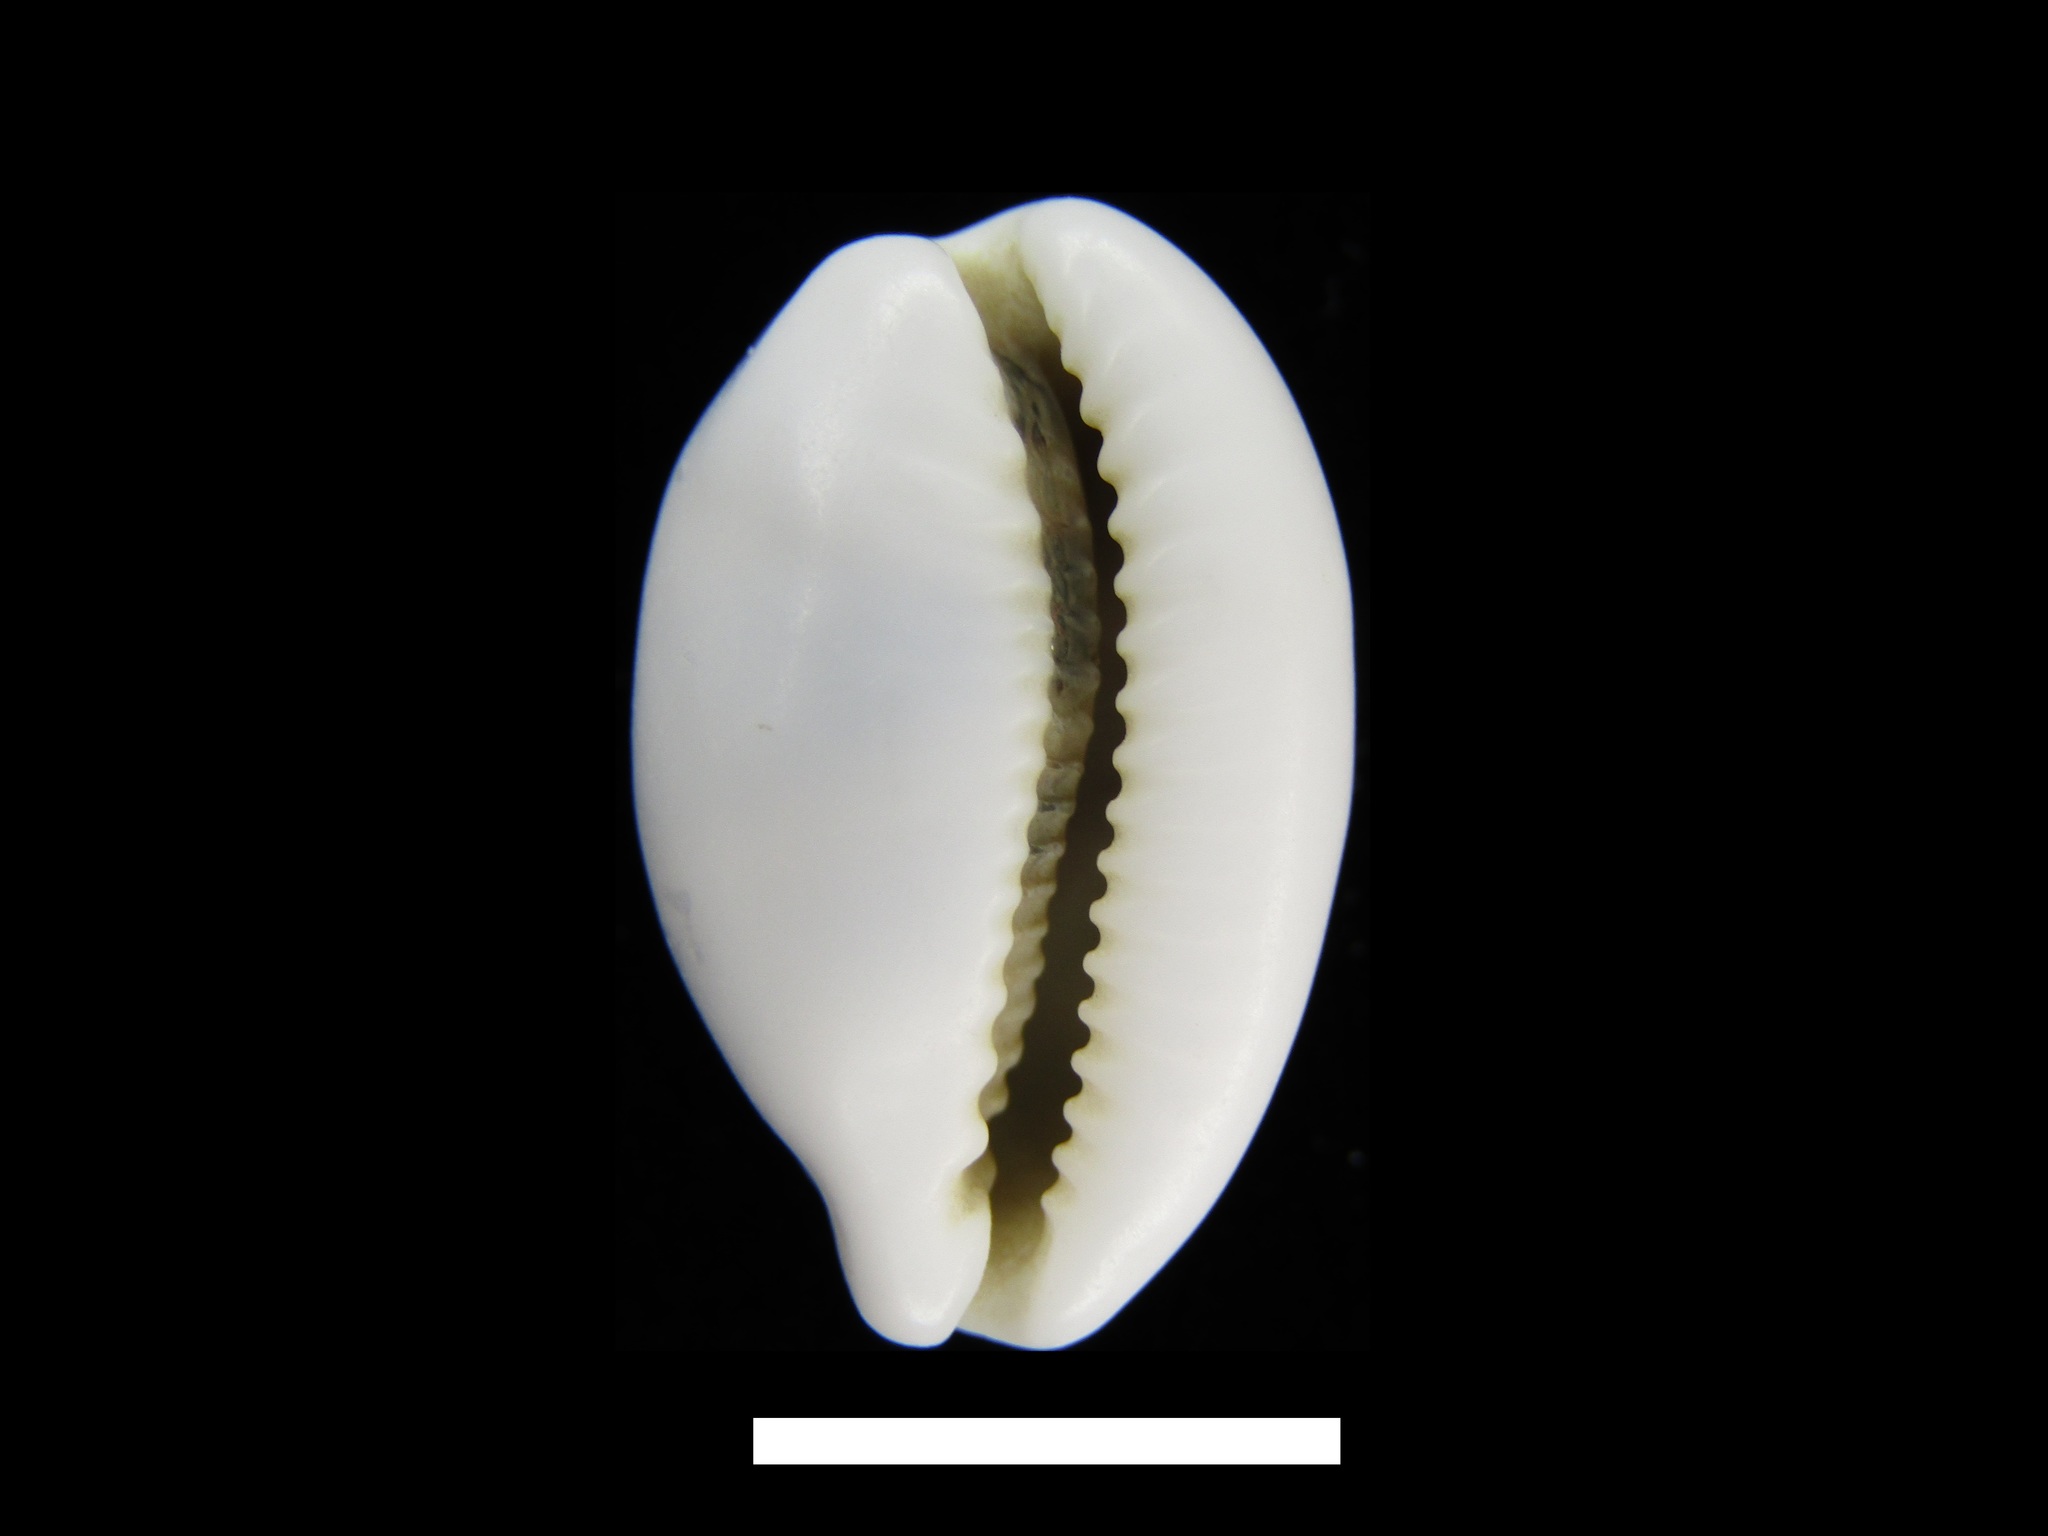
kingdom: Animalia
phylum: Mollusca
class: Gastropoda
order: Littorinimorpha
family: Cypraeidae
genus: Palmadusta
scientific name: Palmadusta asellus
